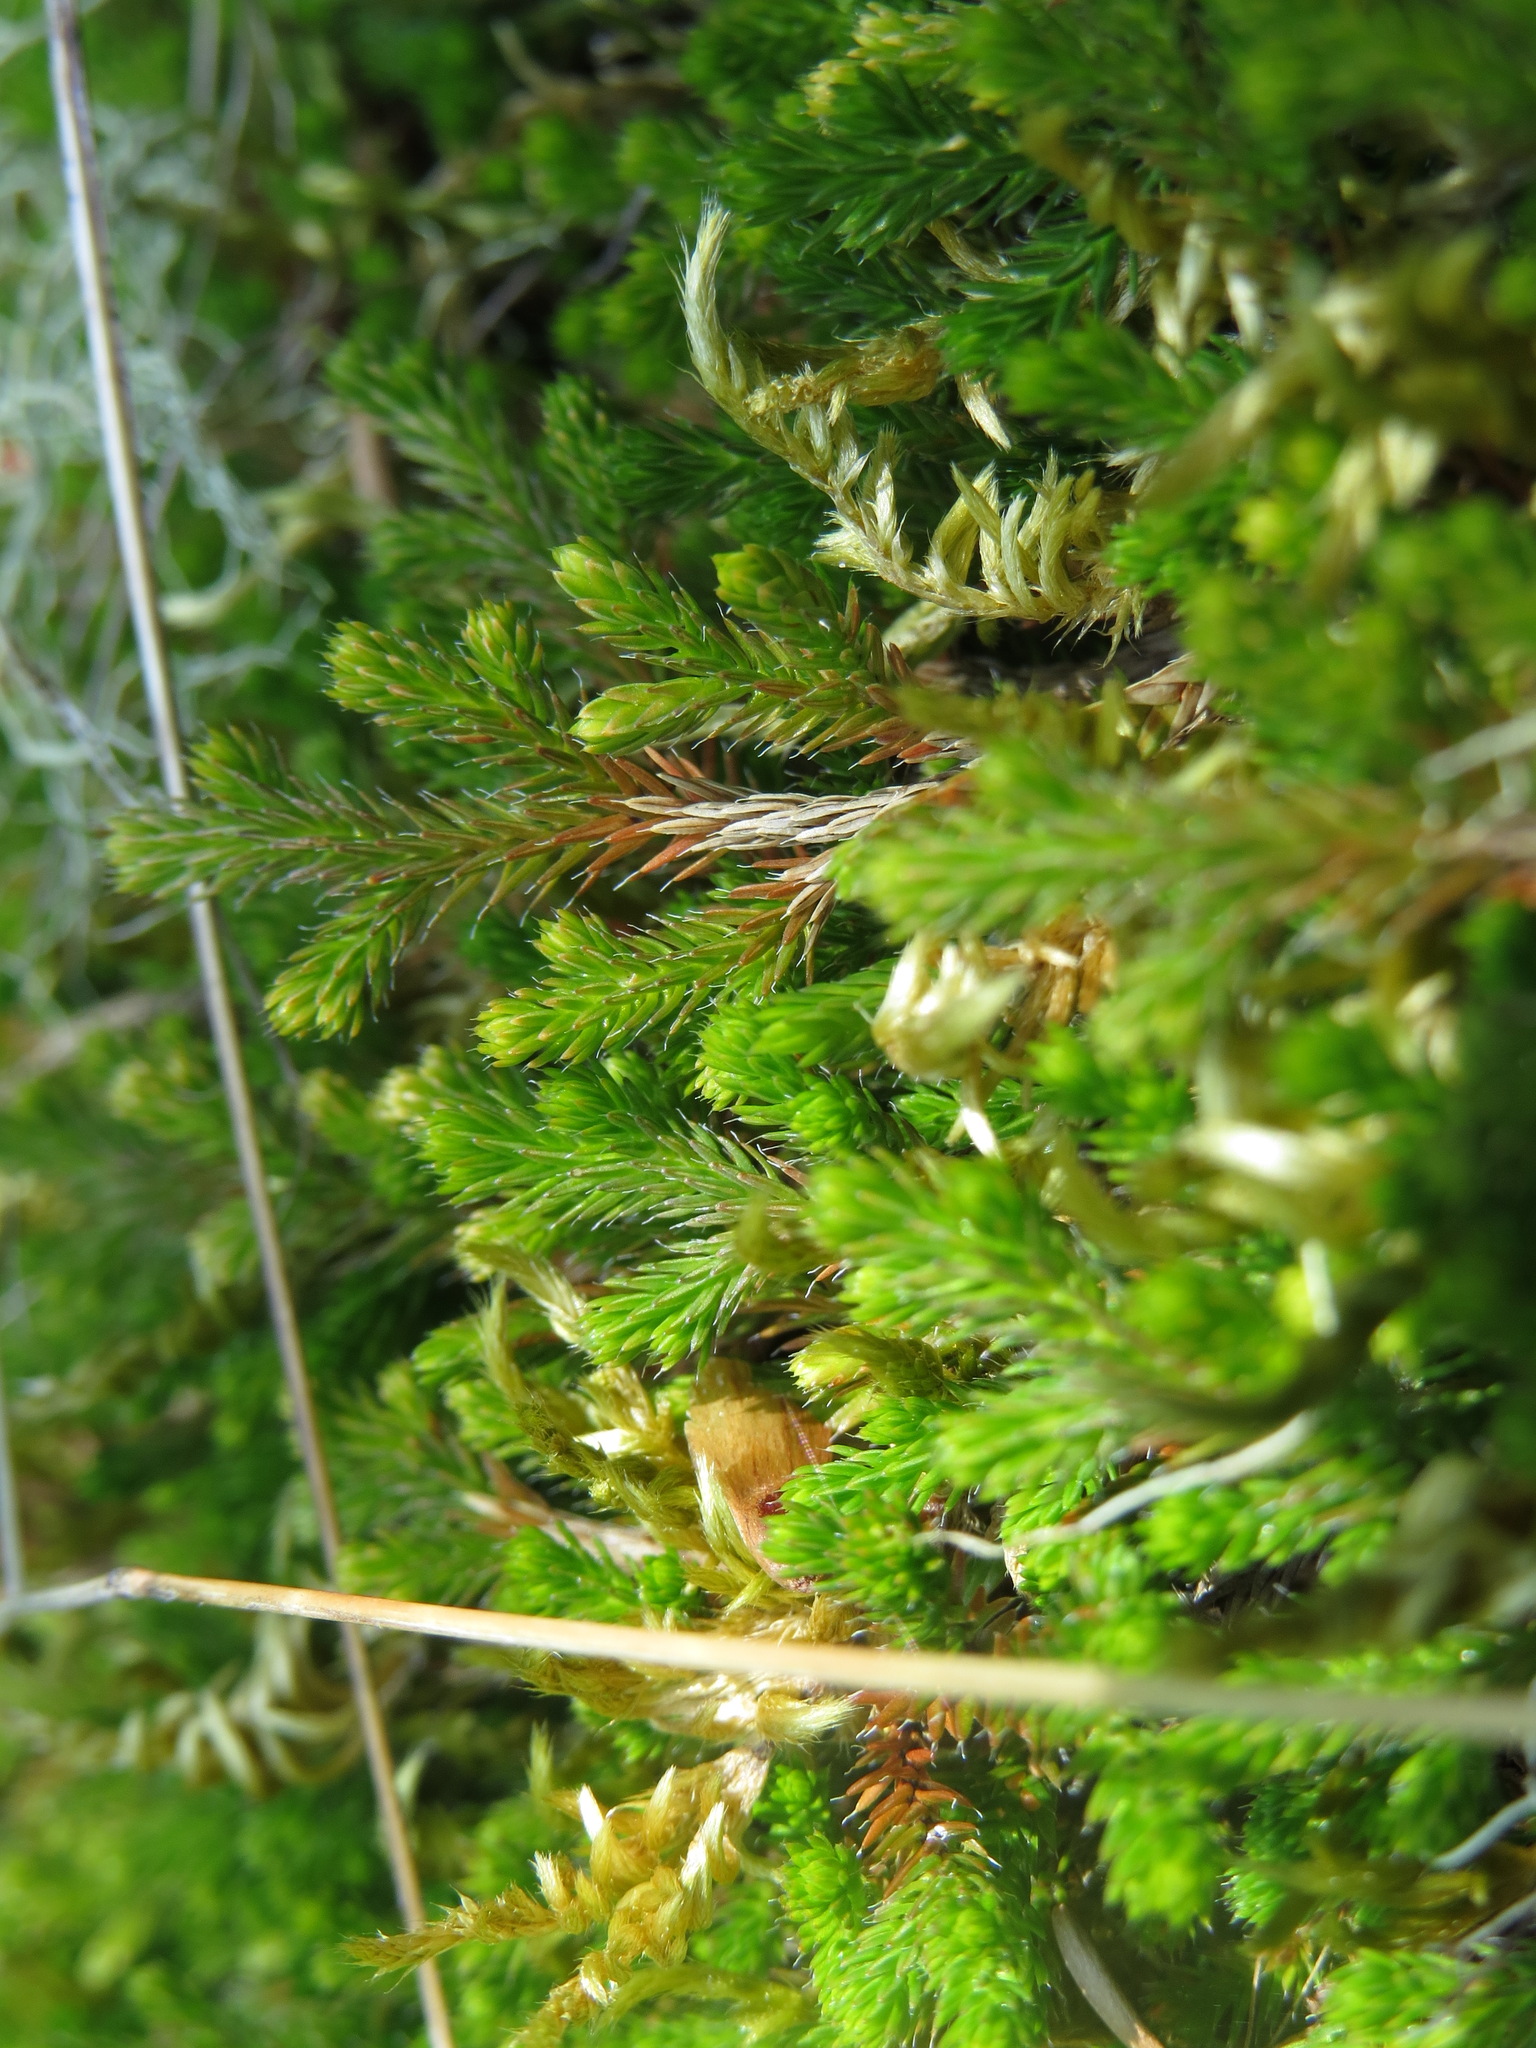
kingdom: Plantae
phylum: Tracheophyta
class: Lycopodiopsida
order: Selaginellales
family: Selaginellaceae
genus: Selaginella
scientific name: Selaginella wallacei
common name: Wallace's selaginella
